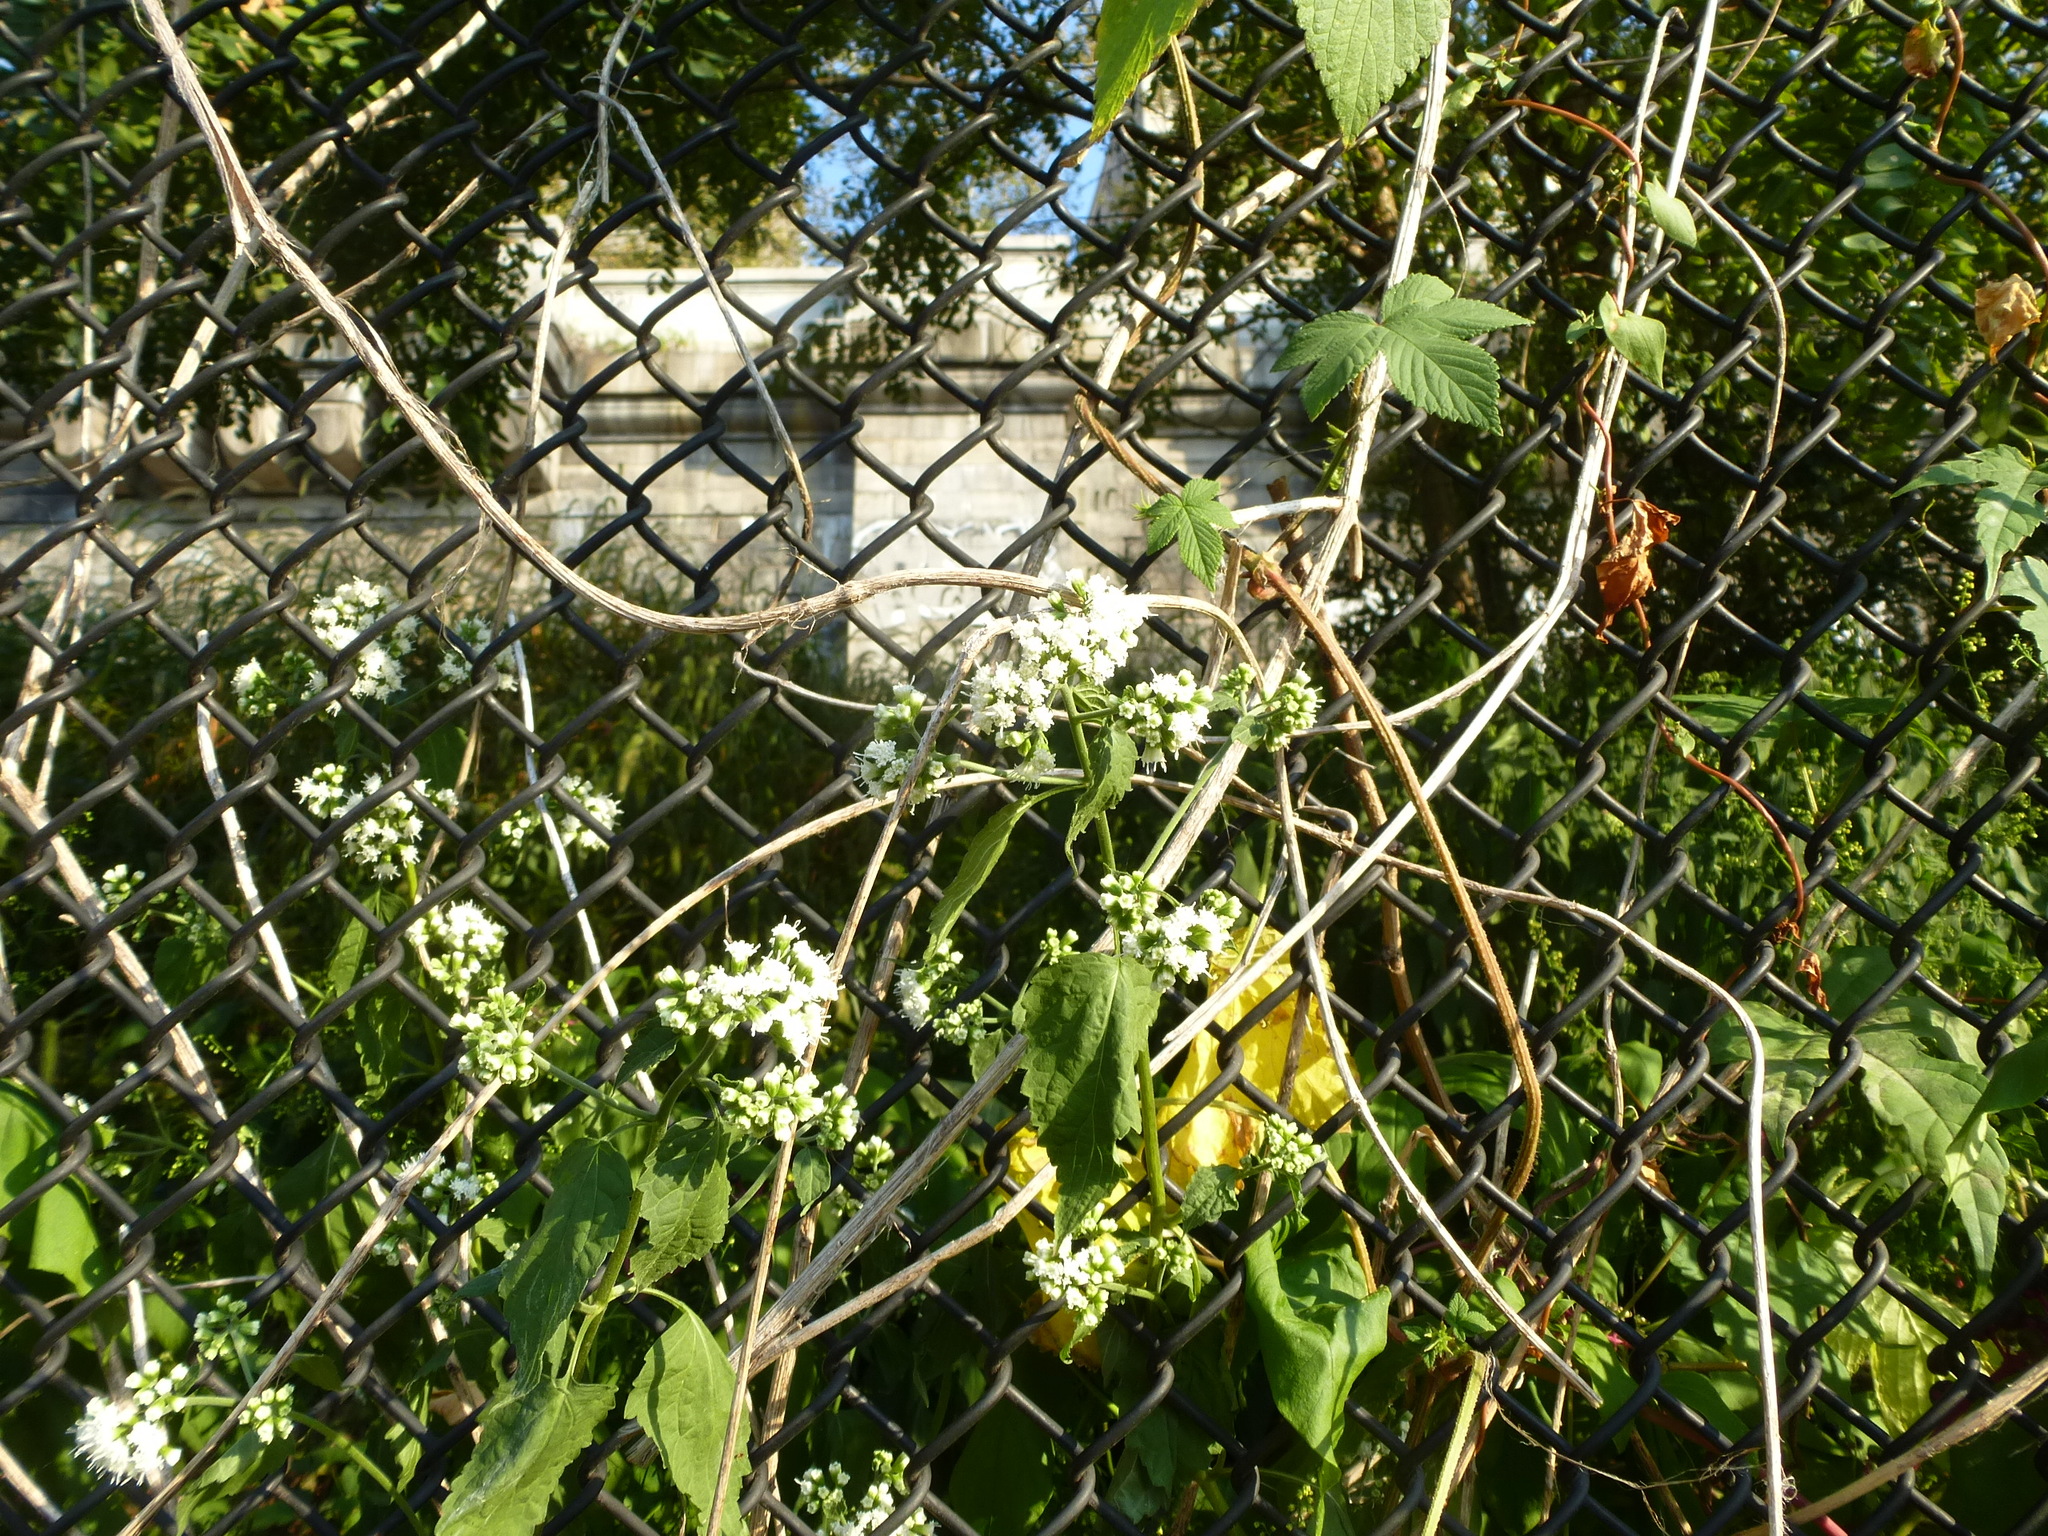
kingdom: Plantae
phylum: Tracheophyta
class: Magnoliopsida
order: Asterales
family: Asteraceae
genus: Ageratina
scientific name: Ageratina altissima
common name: White snakeroot
